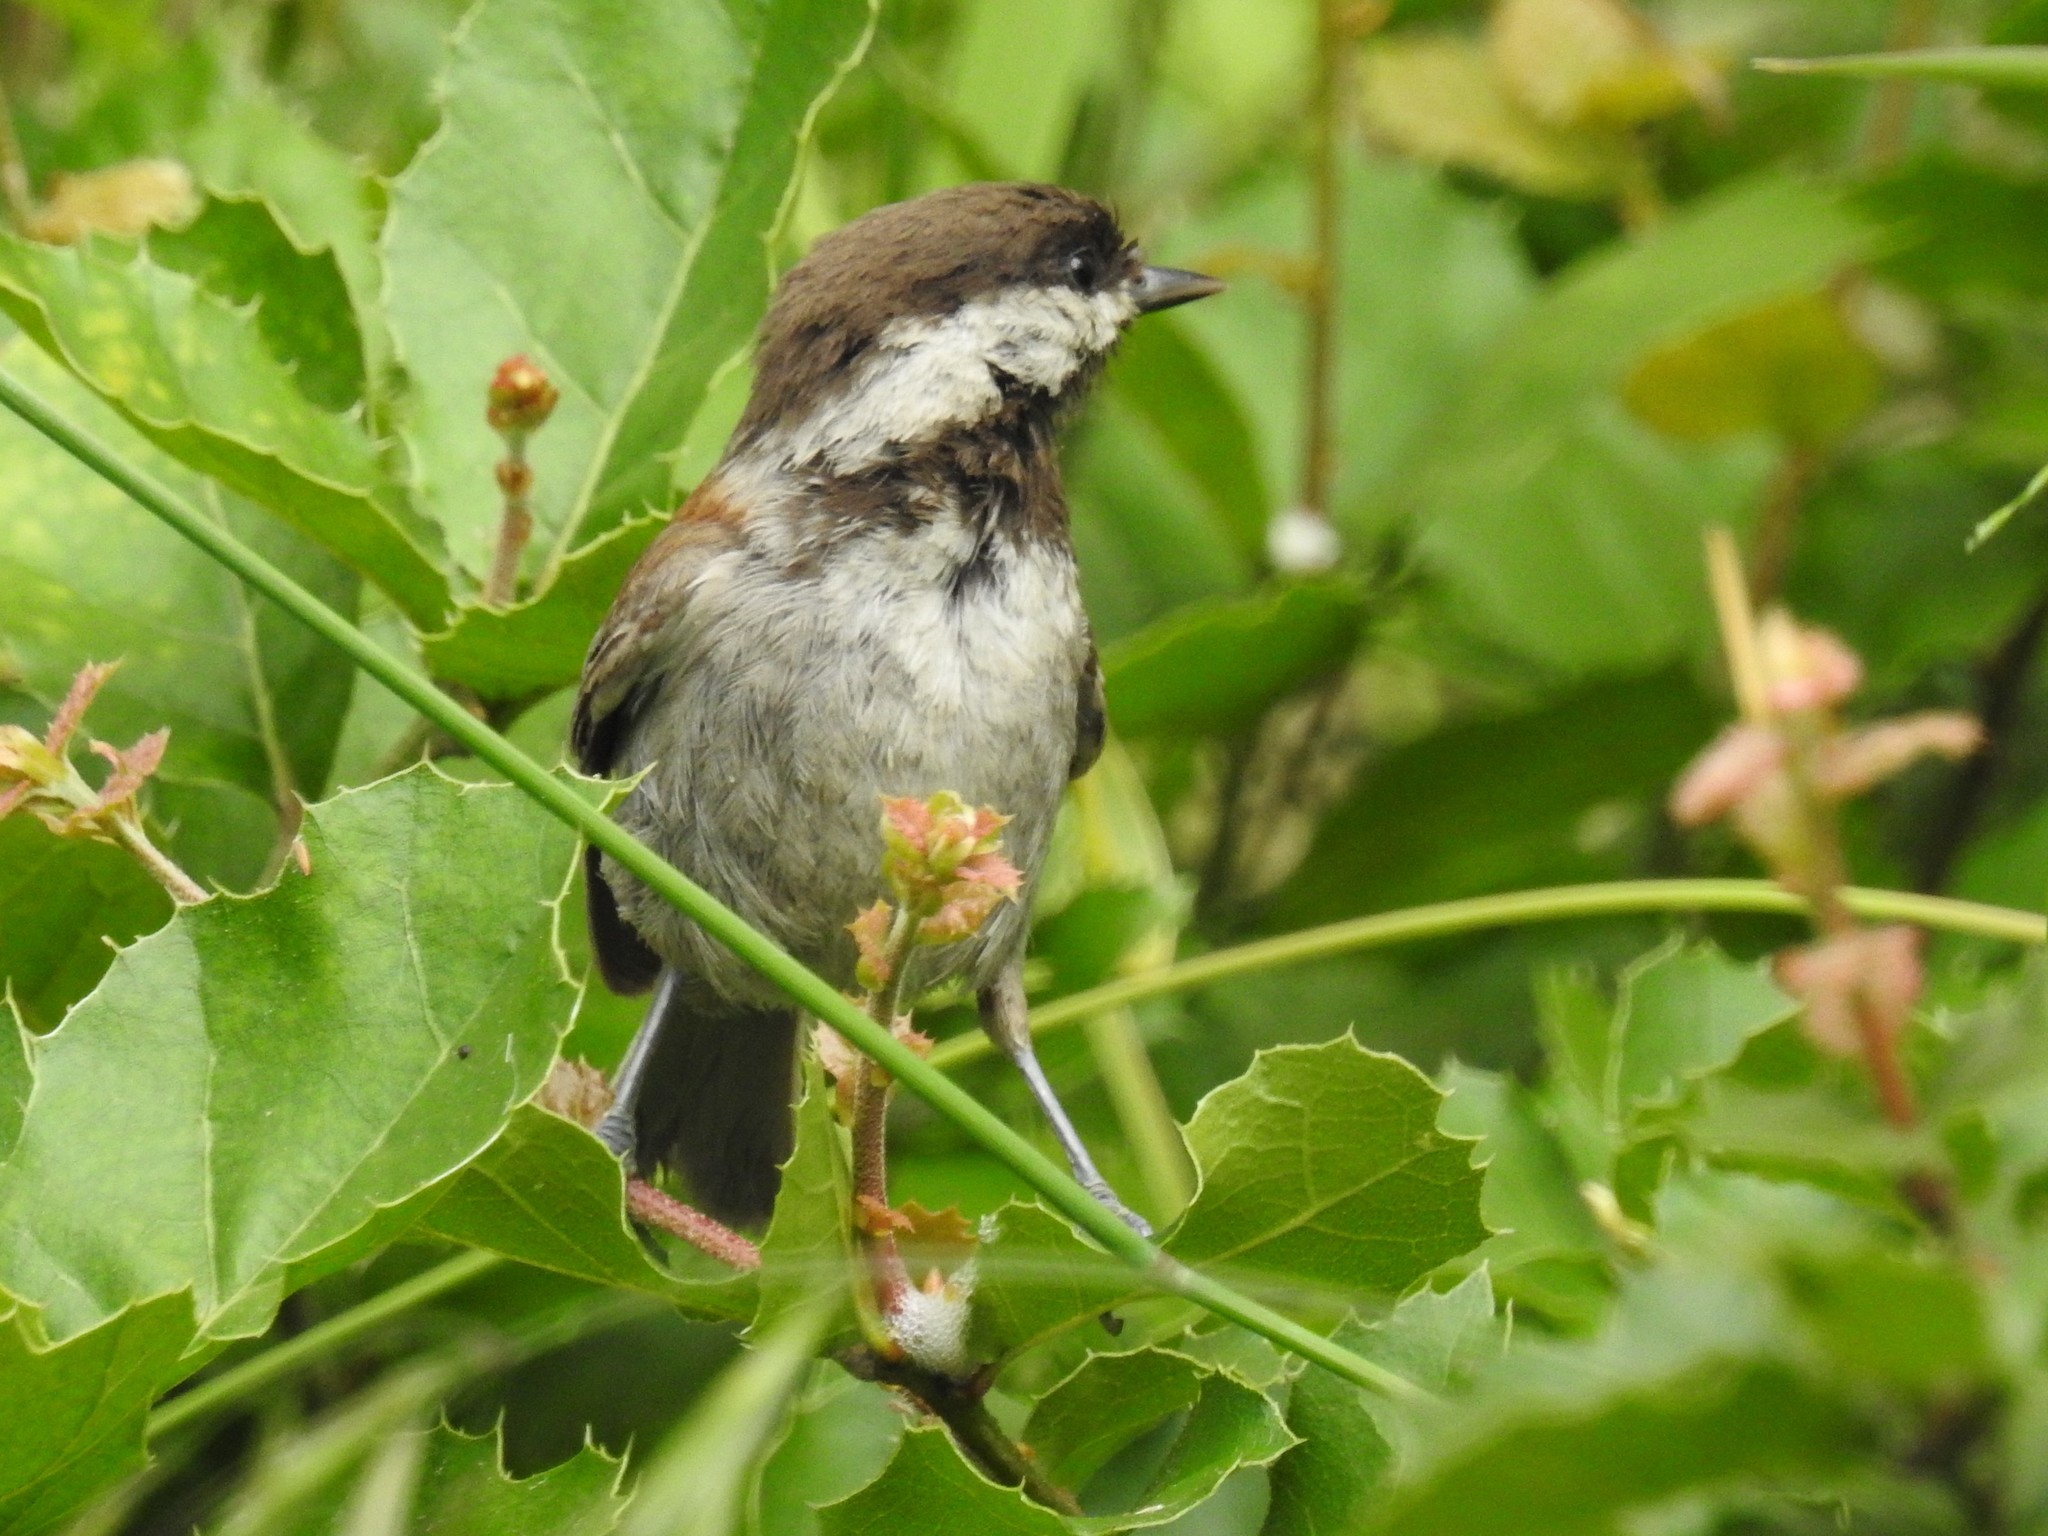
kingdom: Animalia
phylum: Chordata
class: Aves
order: Passeriformes
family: Paridae
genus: Poecile
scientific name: Poecile rufescens
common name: Chestnut-backed chickadee
